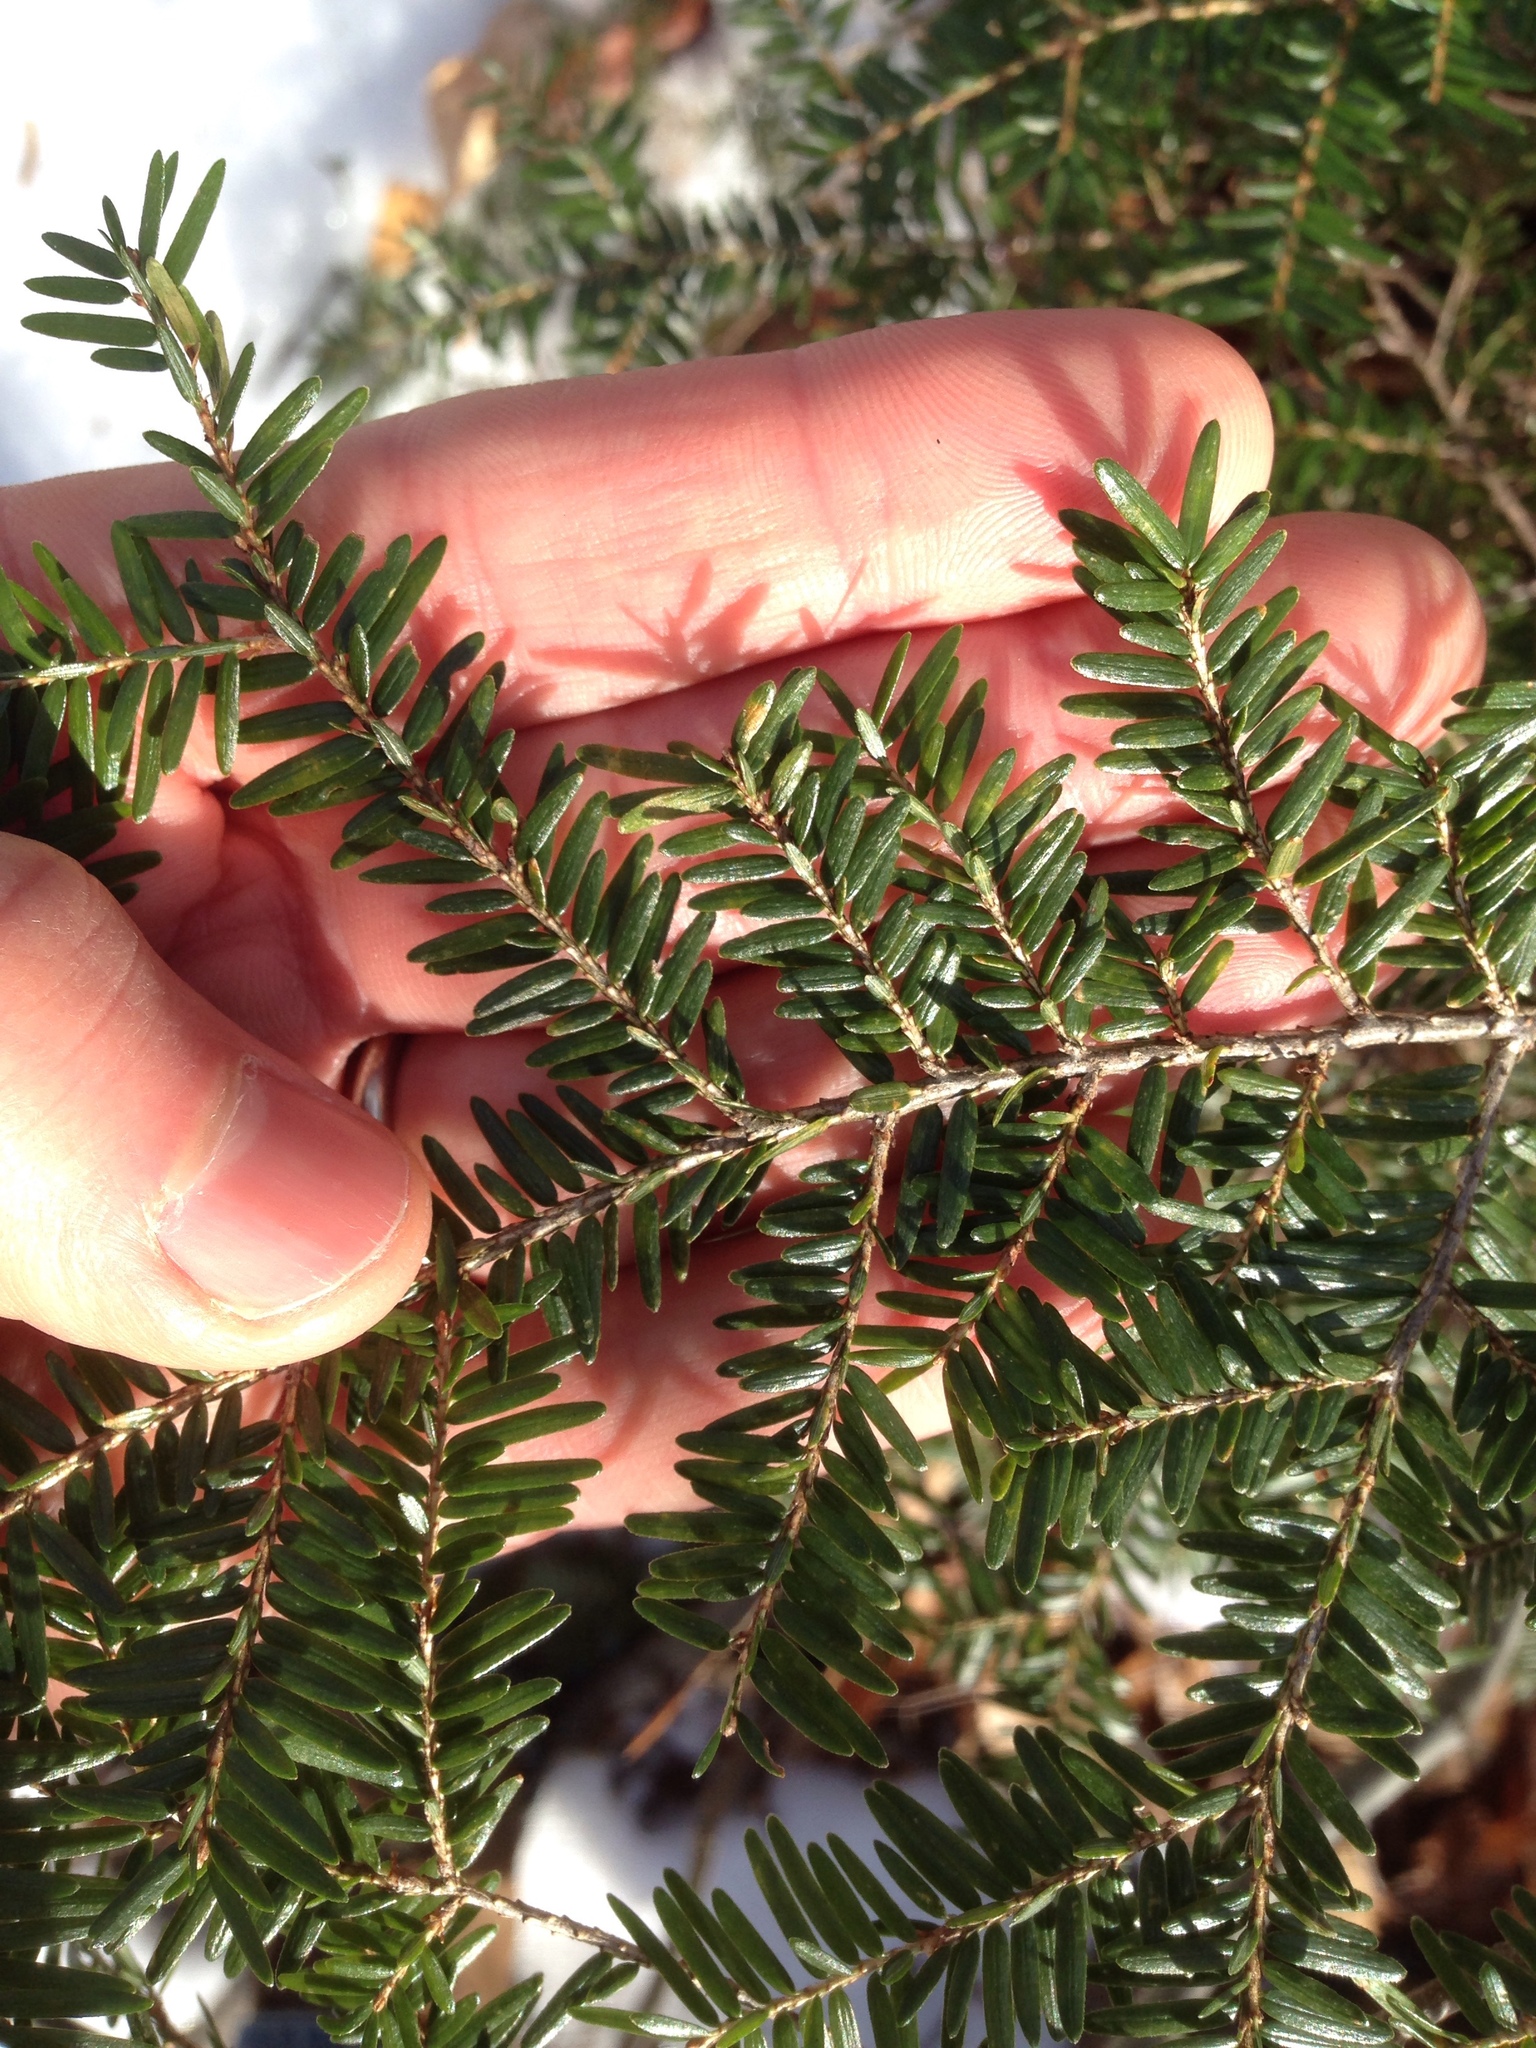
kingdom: Plantae
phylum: Tracheophyta
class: Pinopsida
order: Pinales
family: Pinaceae
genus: Tsuga
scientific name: Tsuga canadensis
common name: Eastern hemlock
